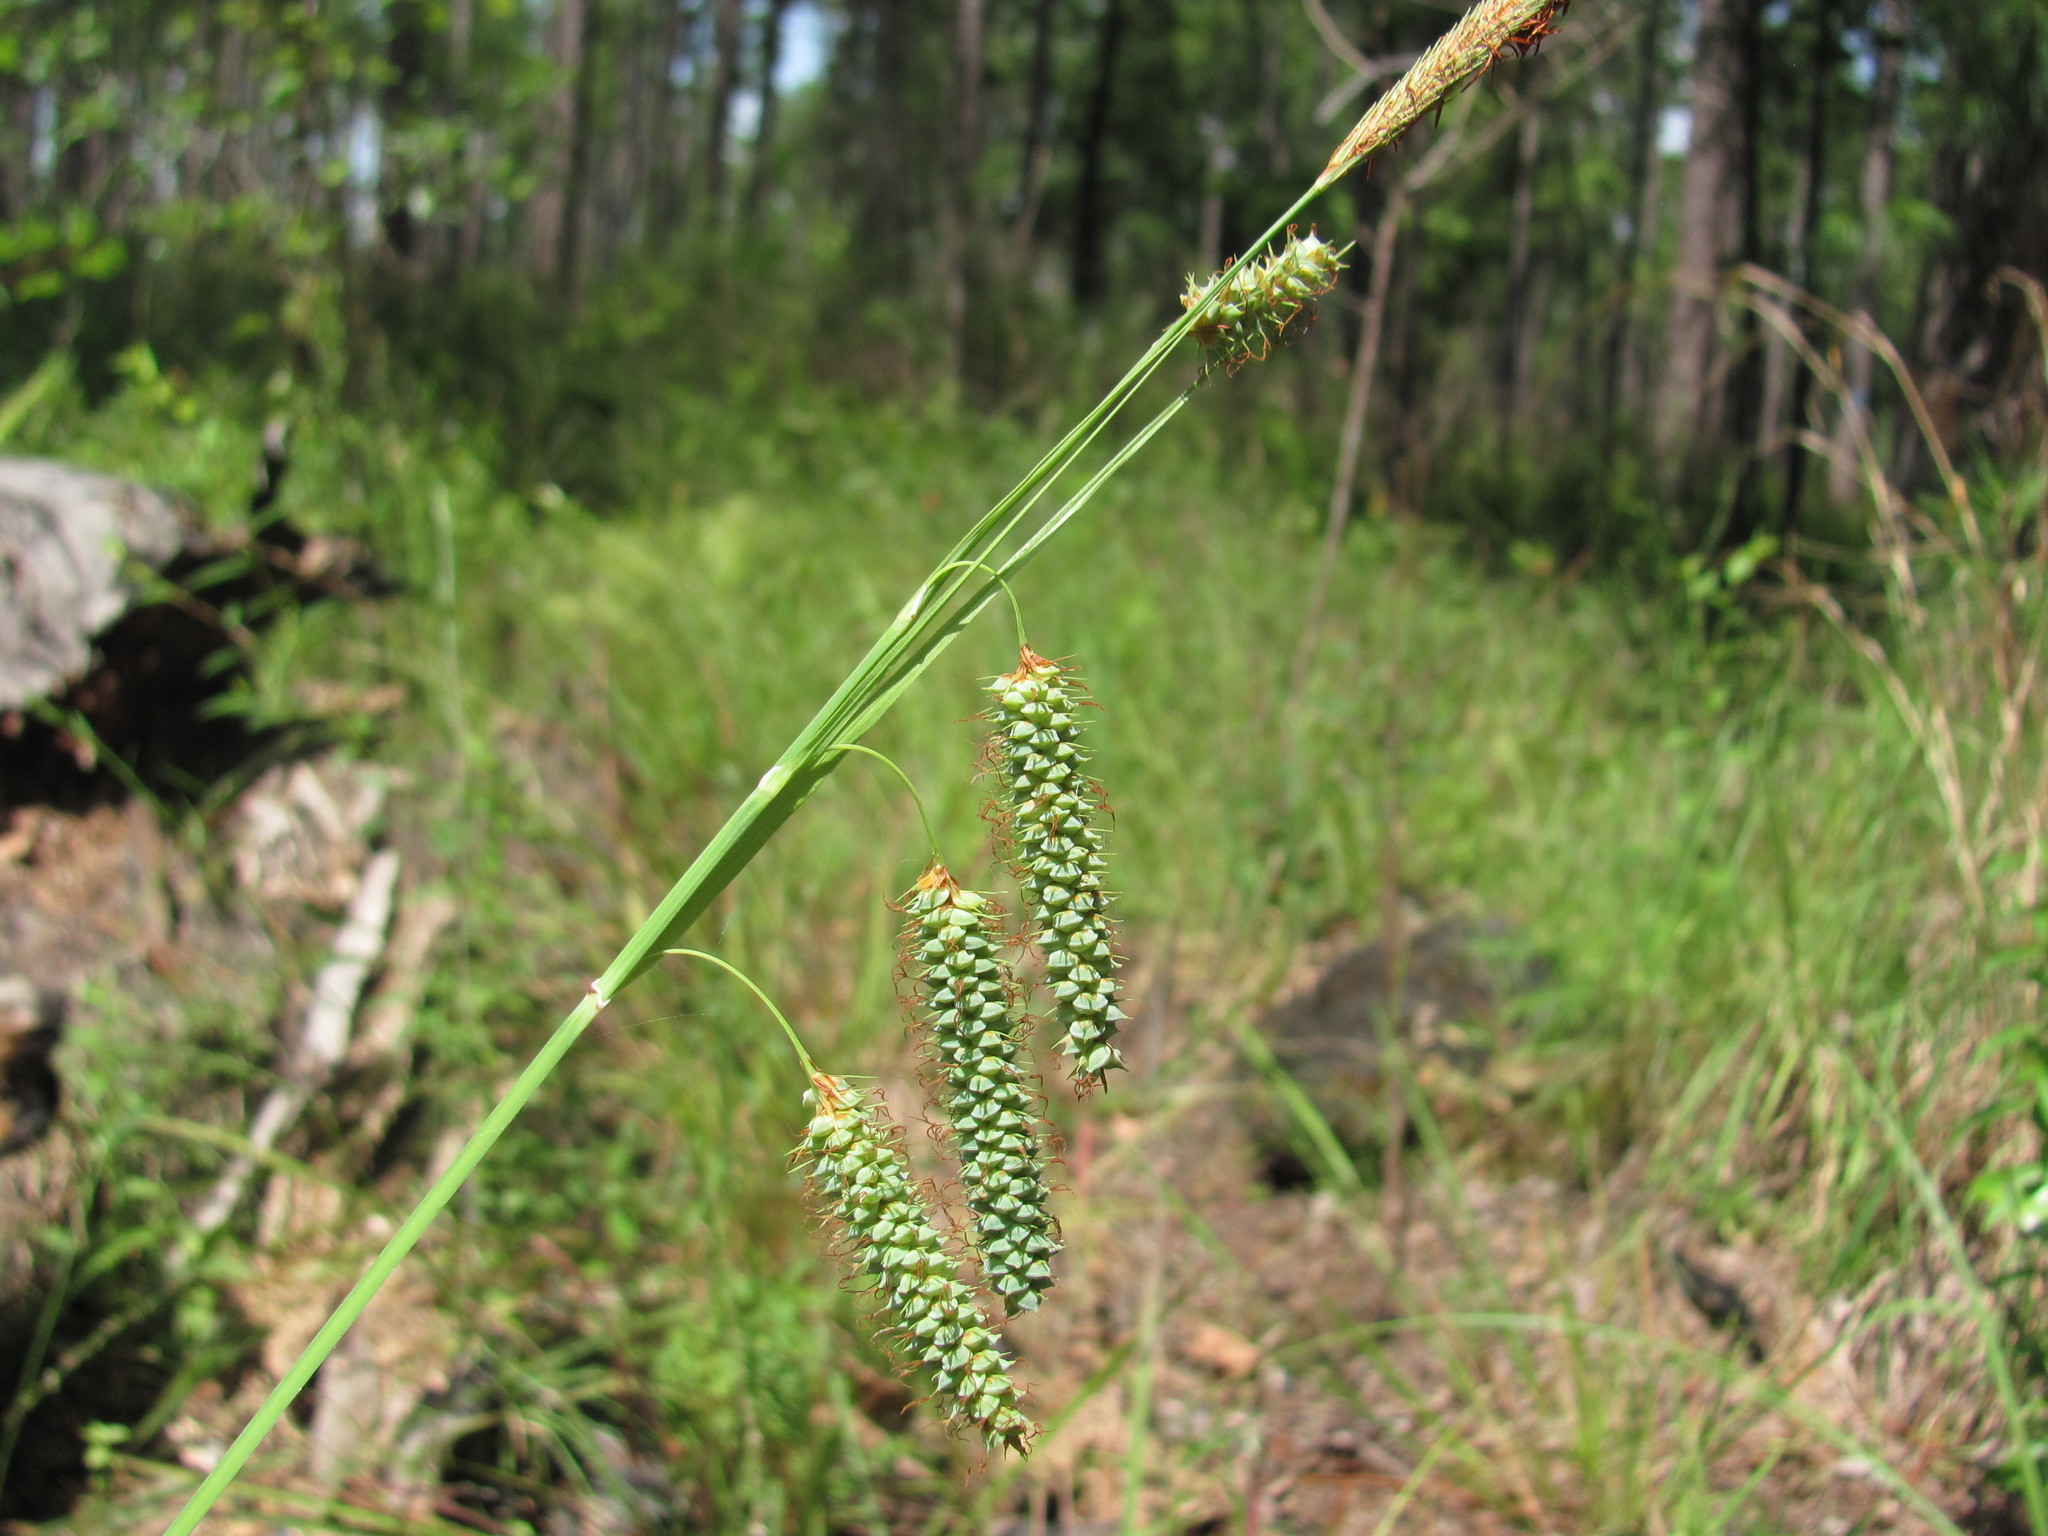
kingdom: Plantae
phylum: Tracheophyta
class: Liliopsida
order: Poales
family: Cyperaceae
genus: Carex
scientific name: Carex glaucescens
